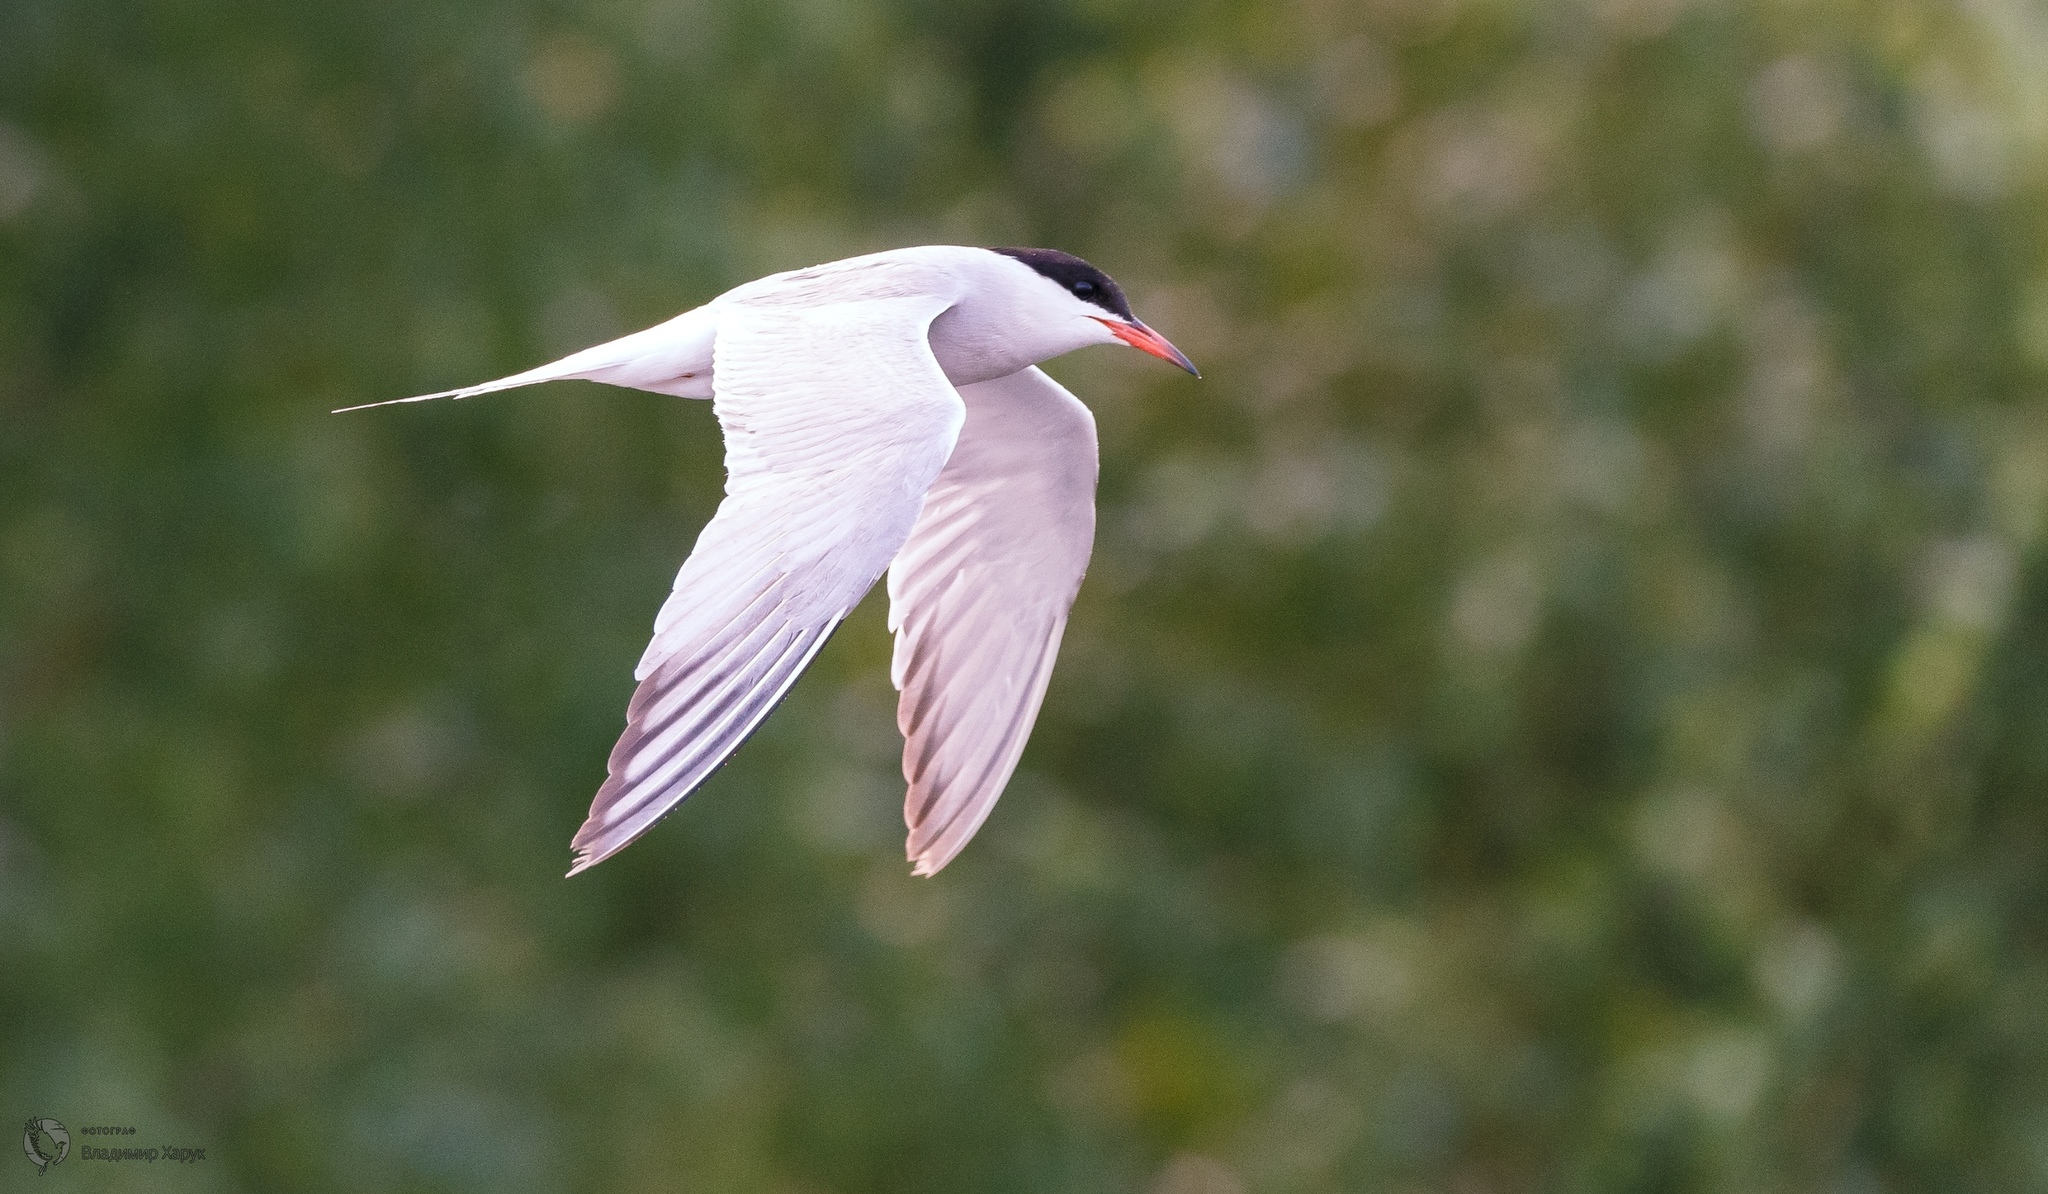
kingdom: Animalia
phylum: Chordata
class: Aves
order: Charadriiformes
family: Laridae
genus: Sterna
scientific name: Sterna hirundo
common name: Common tern
